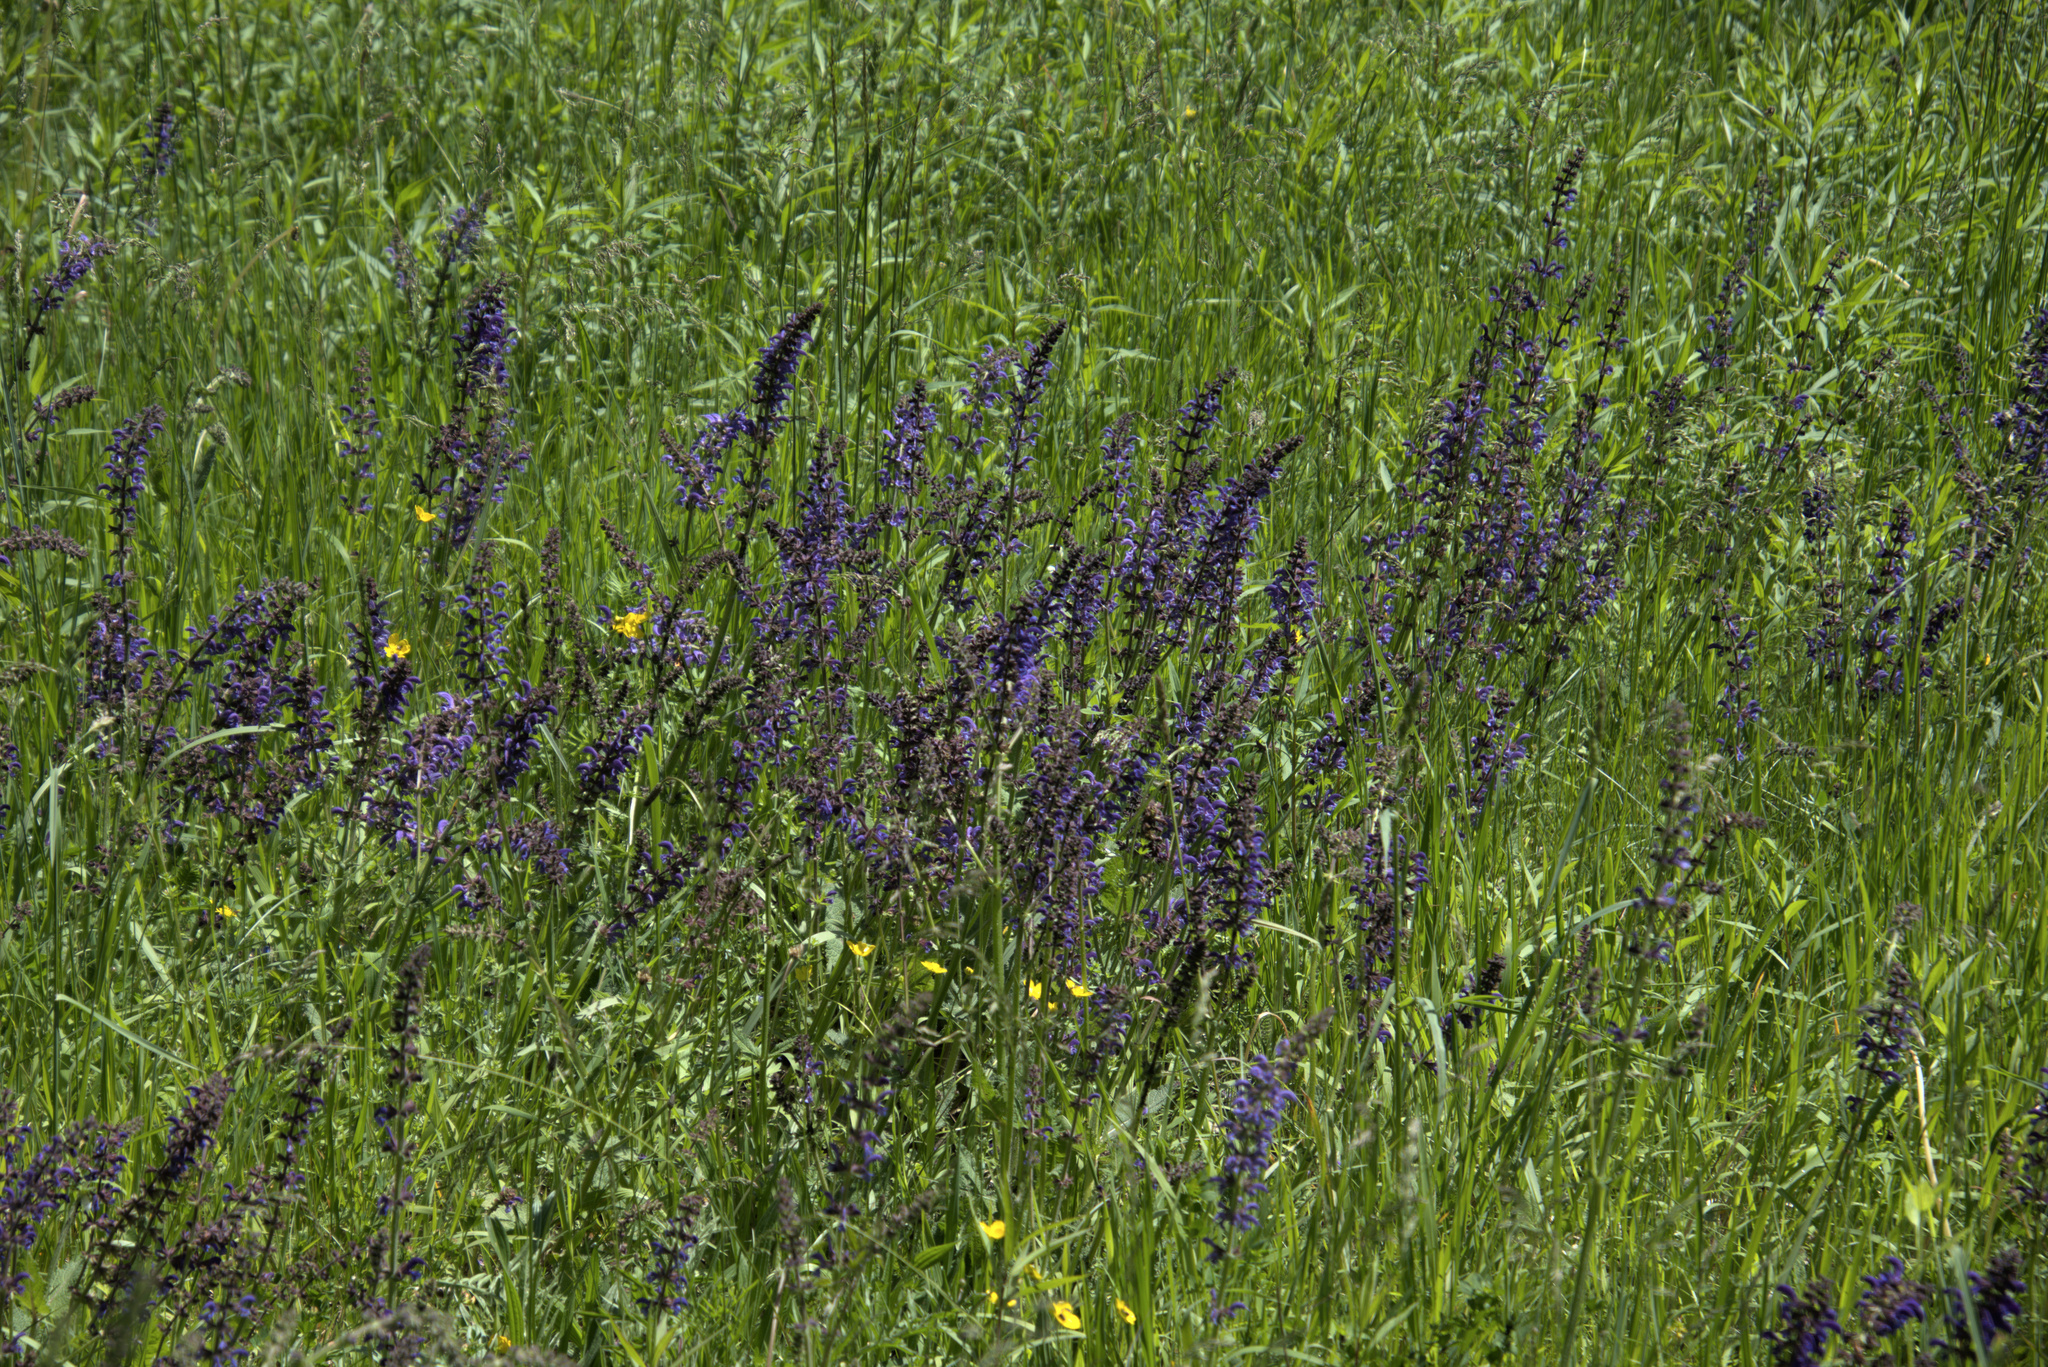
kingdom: Plantae
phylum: Tracheophyta
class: Magnoliopsida
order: Lamiales
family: Lamiaceae
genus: Salvia
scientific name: Salvia pratensis
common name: Meadow sage
